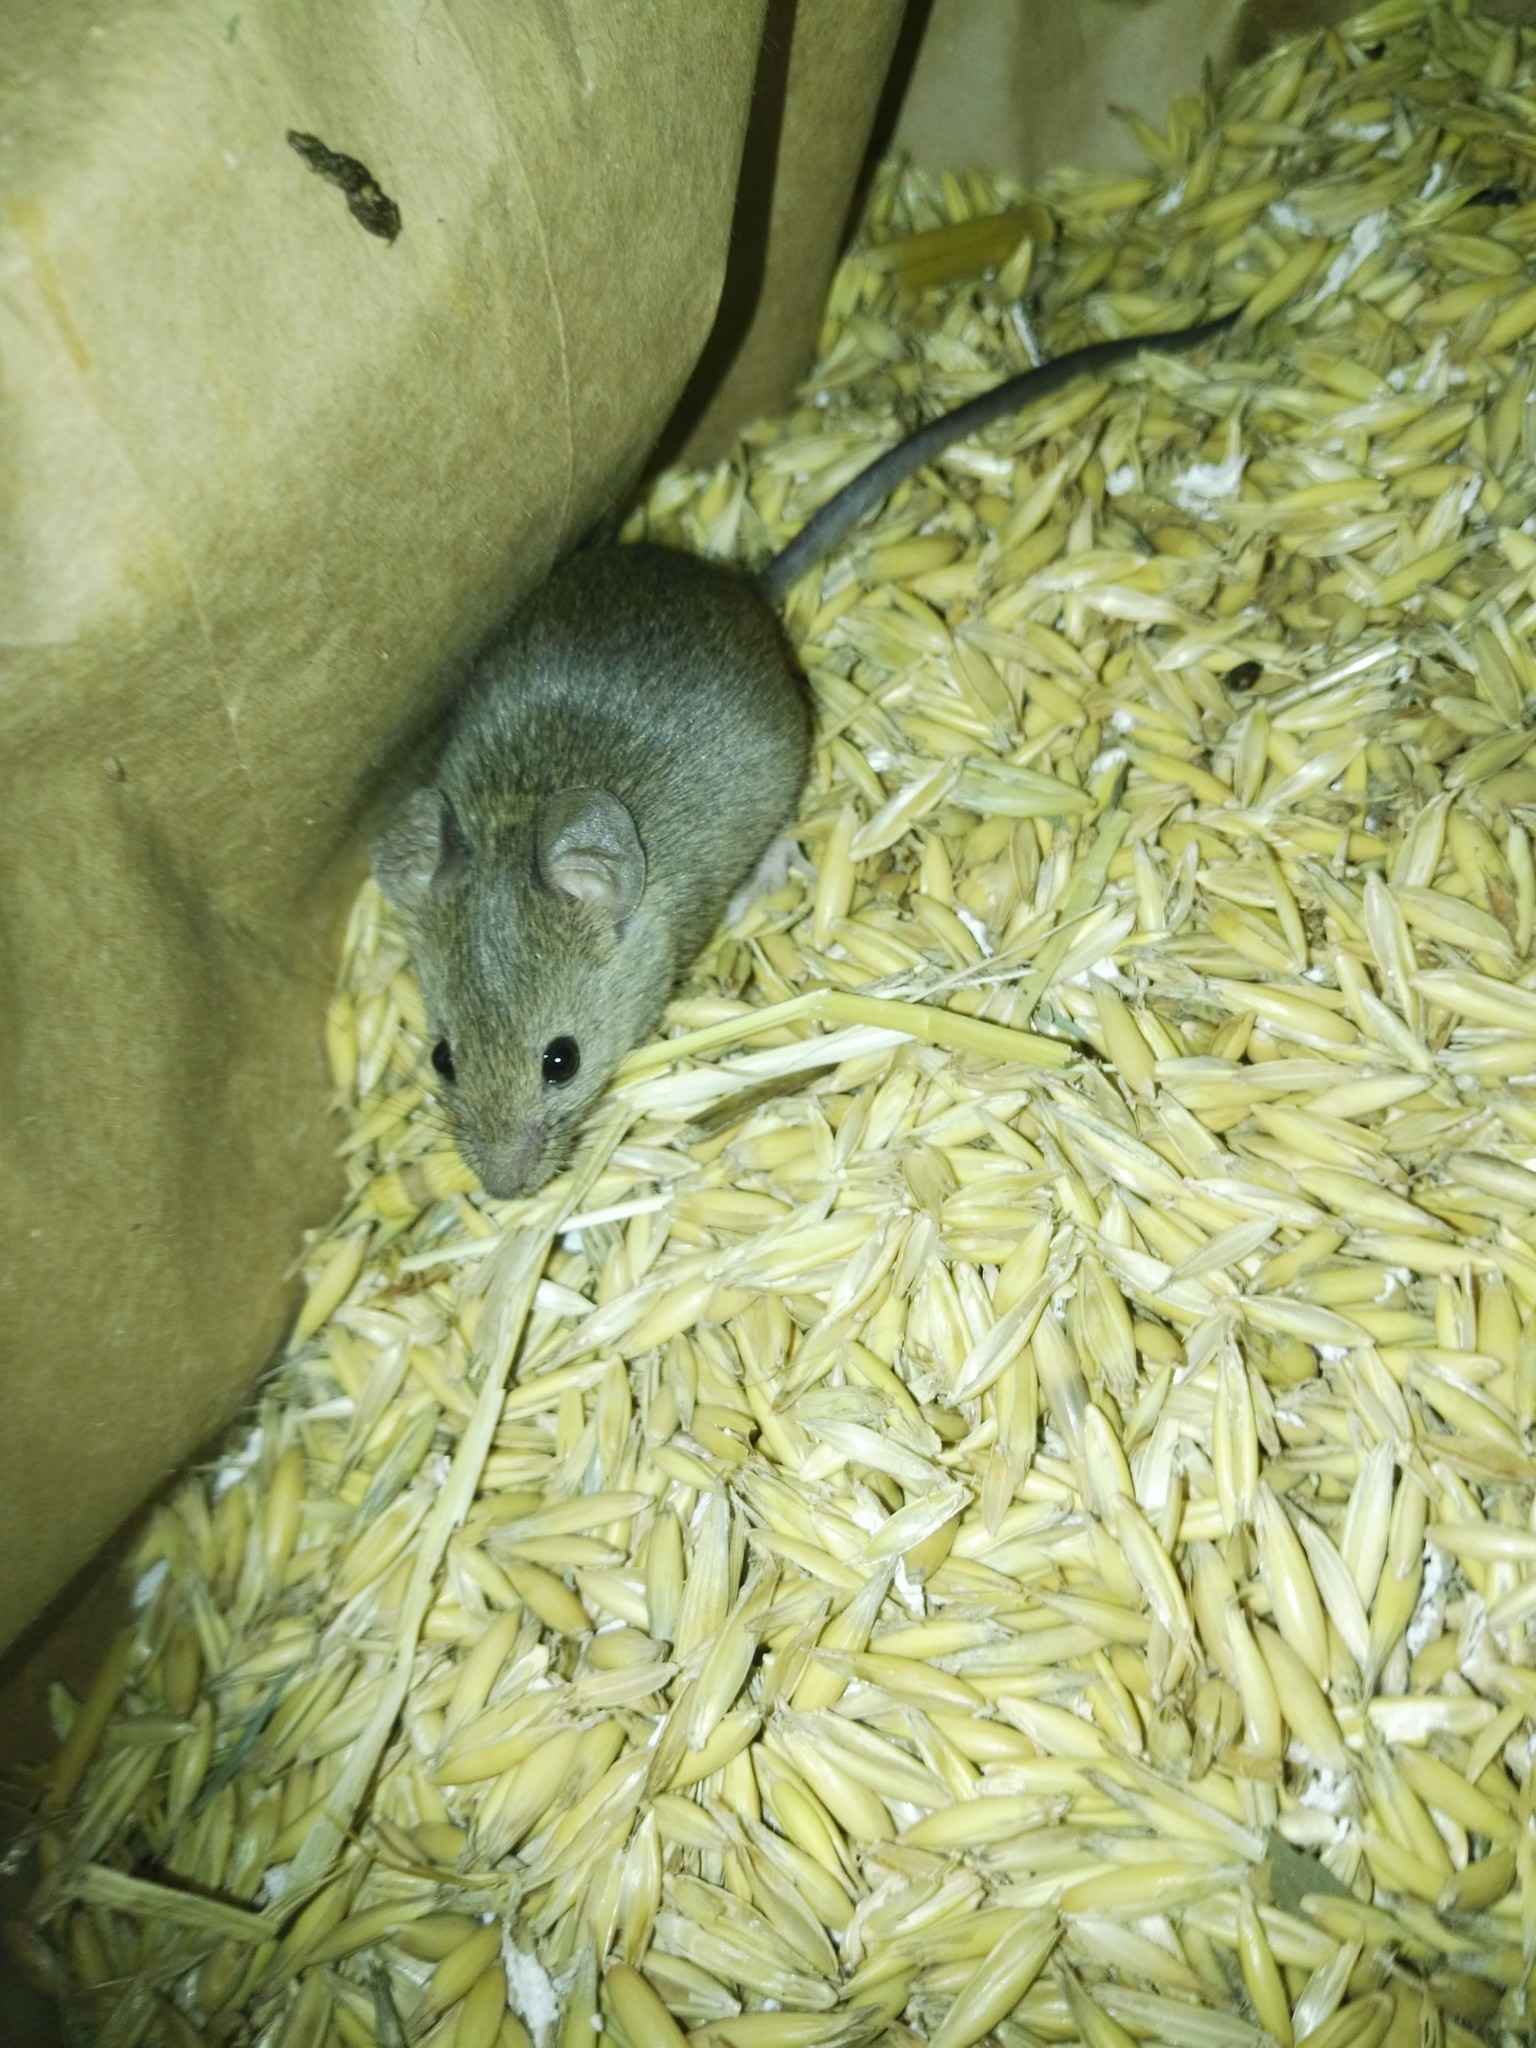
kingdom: Animalia
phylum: Chordata
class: Mammalia
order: Rodentia
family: Muridae
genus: Mus
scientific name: Mus musculus
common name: House mouse
